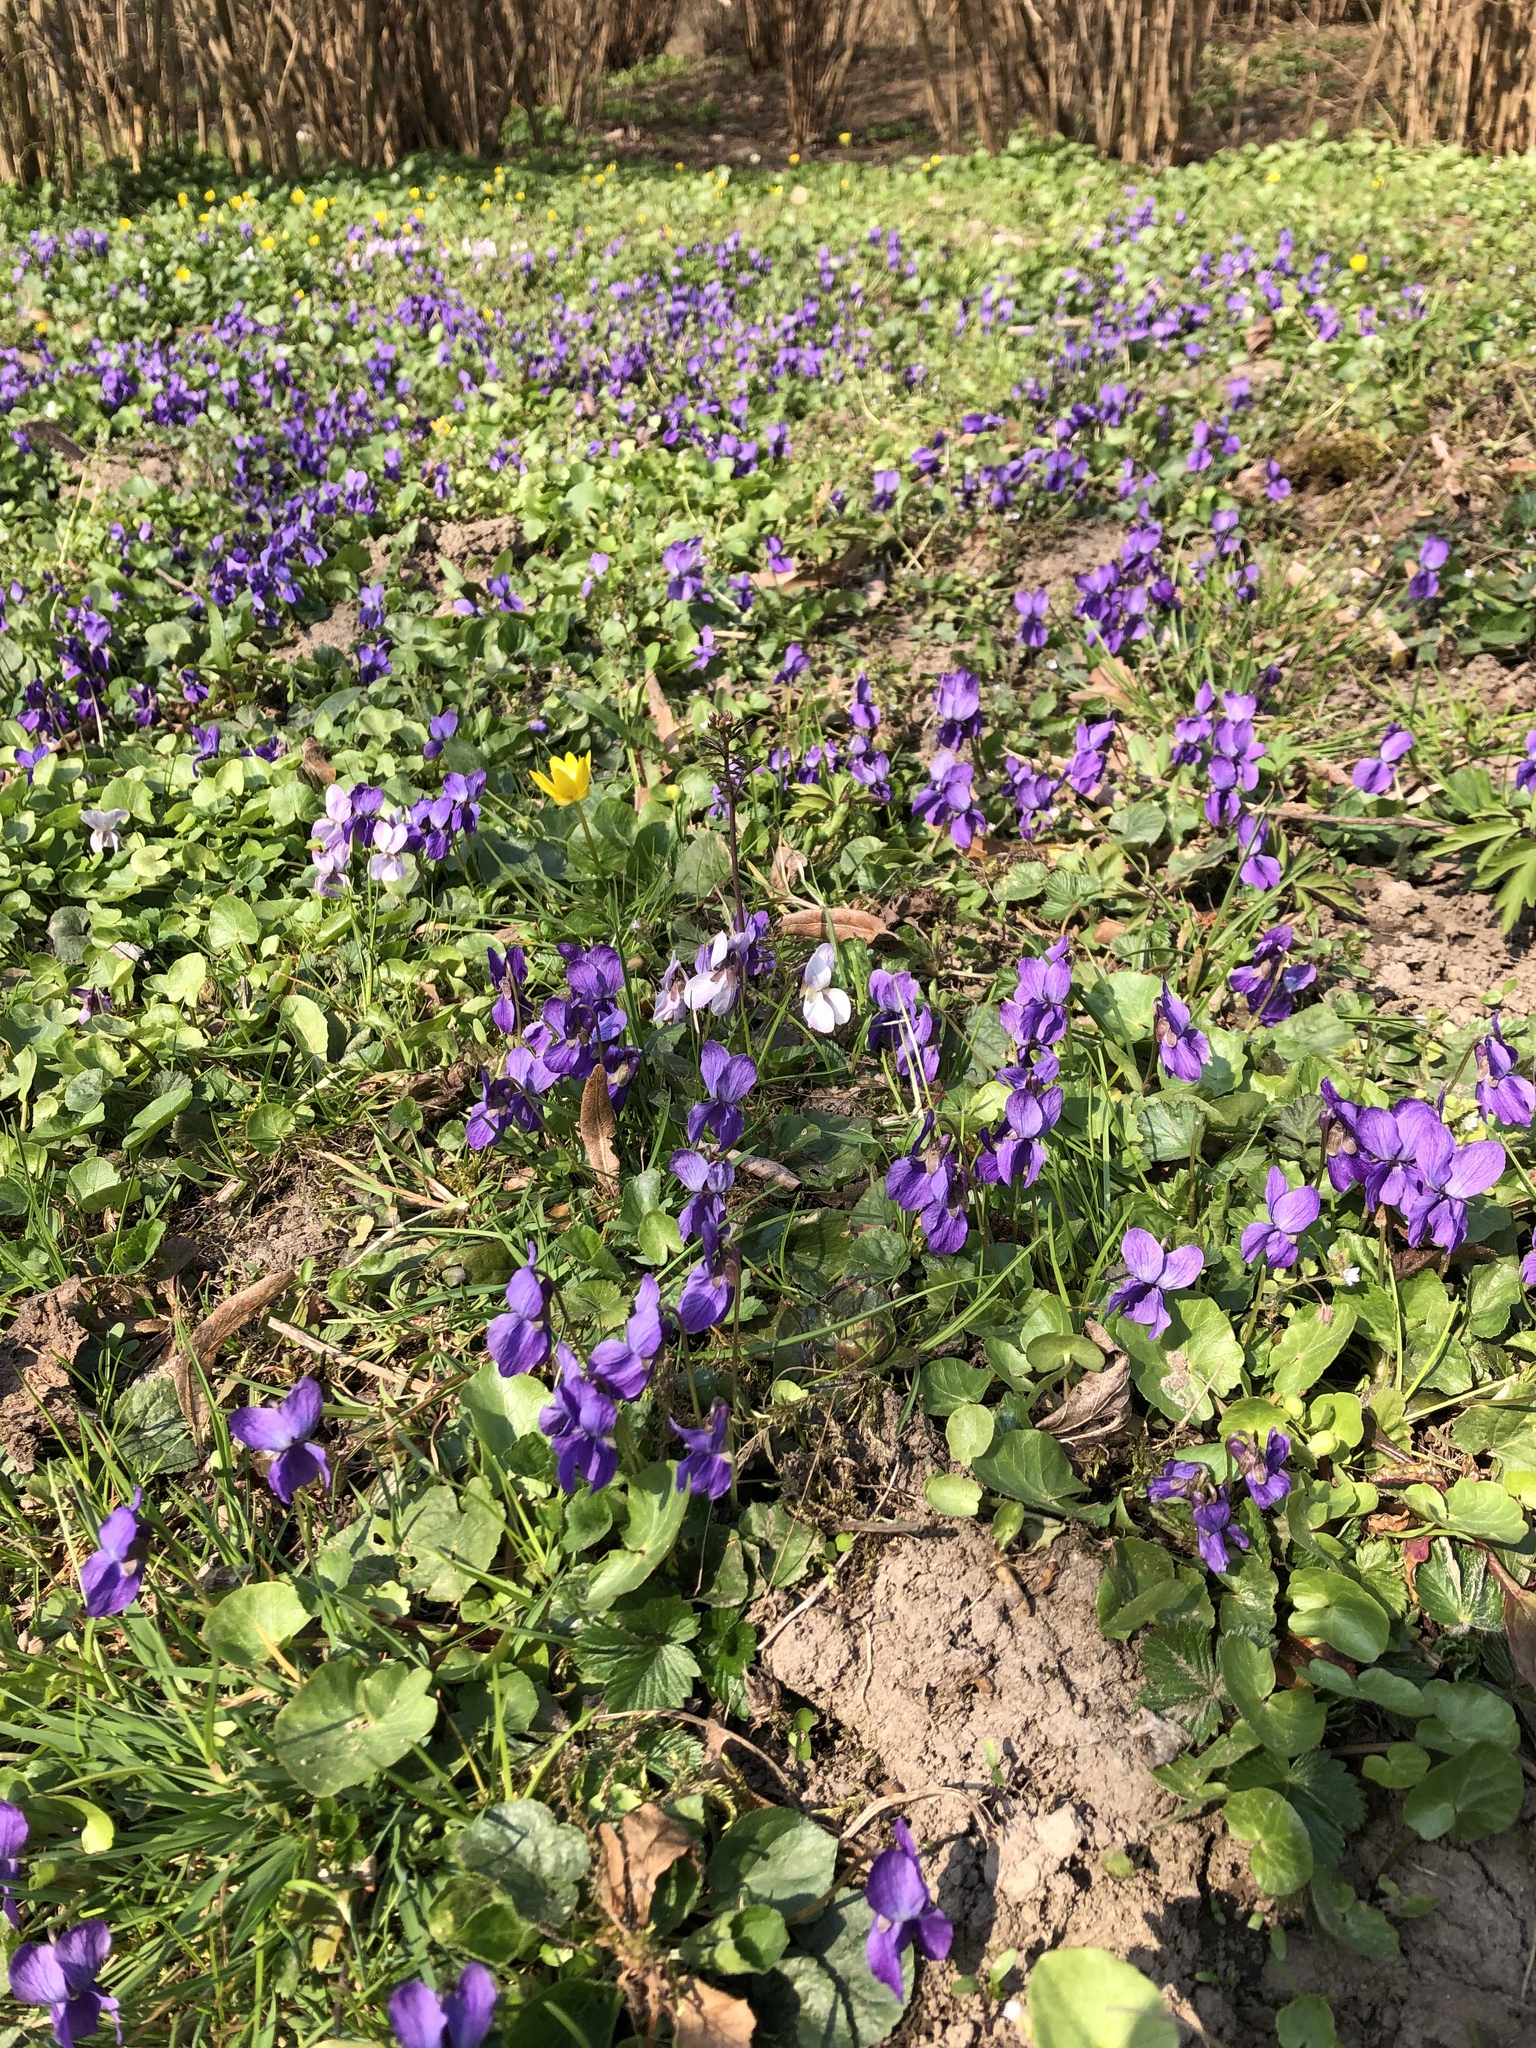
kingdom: Plantae
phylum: Tracheophyta
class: Magnoliopsida
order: Malpighiales
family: Violaceae
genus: Viola
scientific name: Viola odorata
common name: Sweet violet
